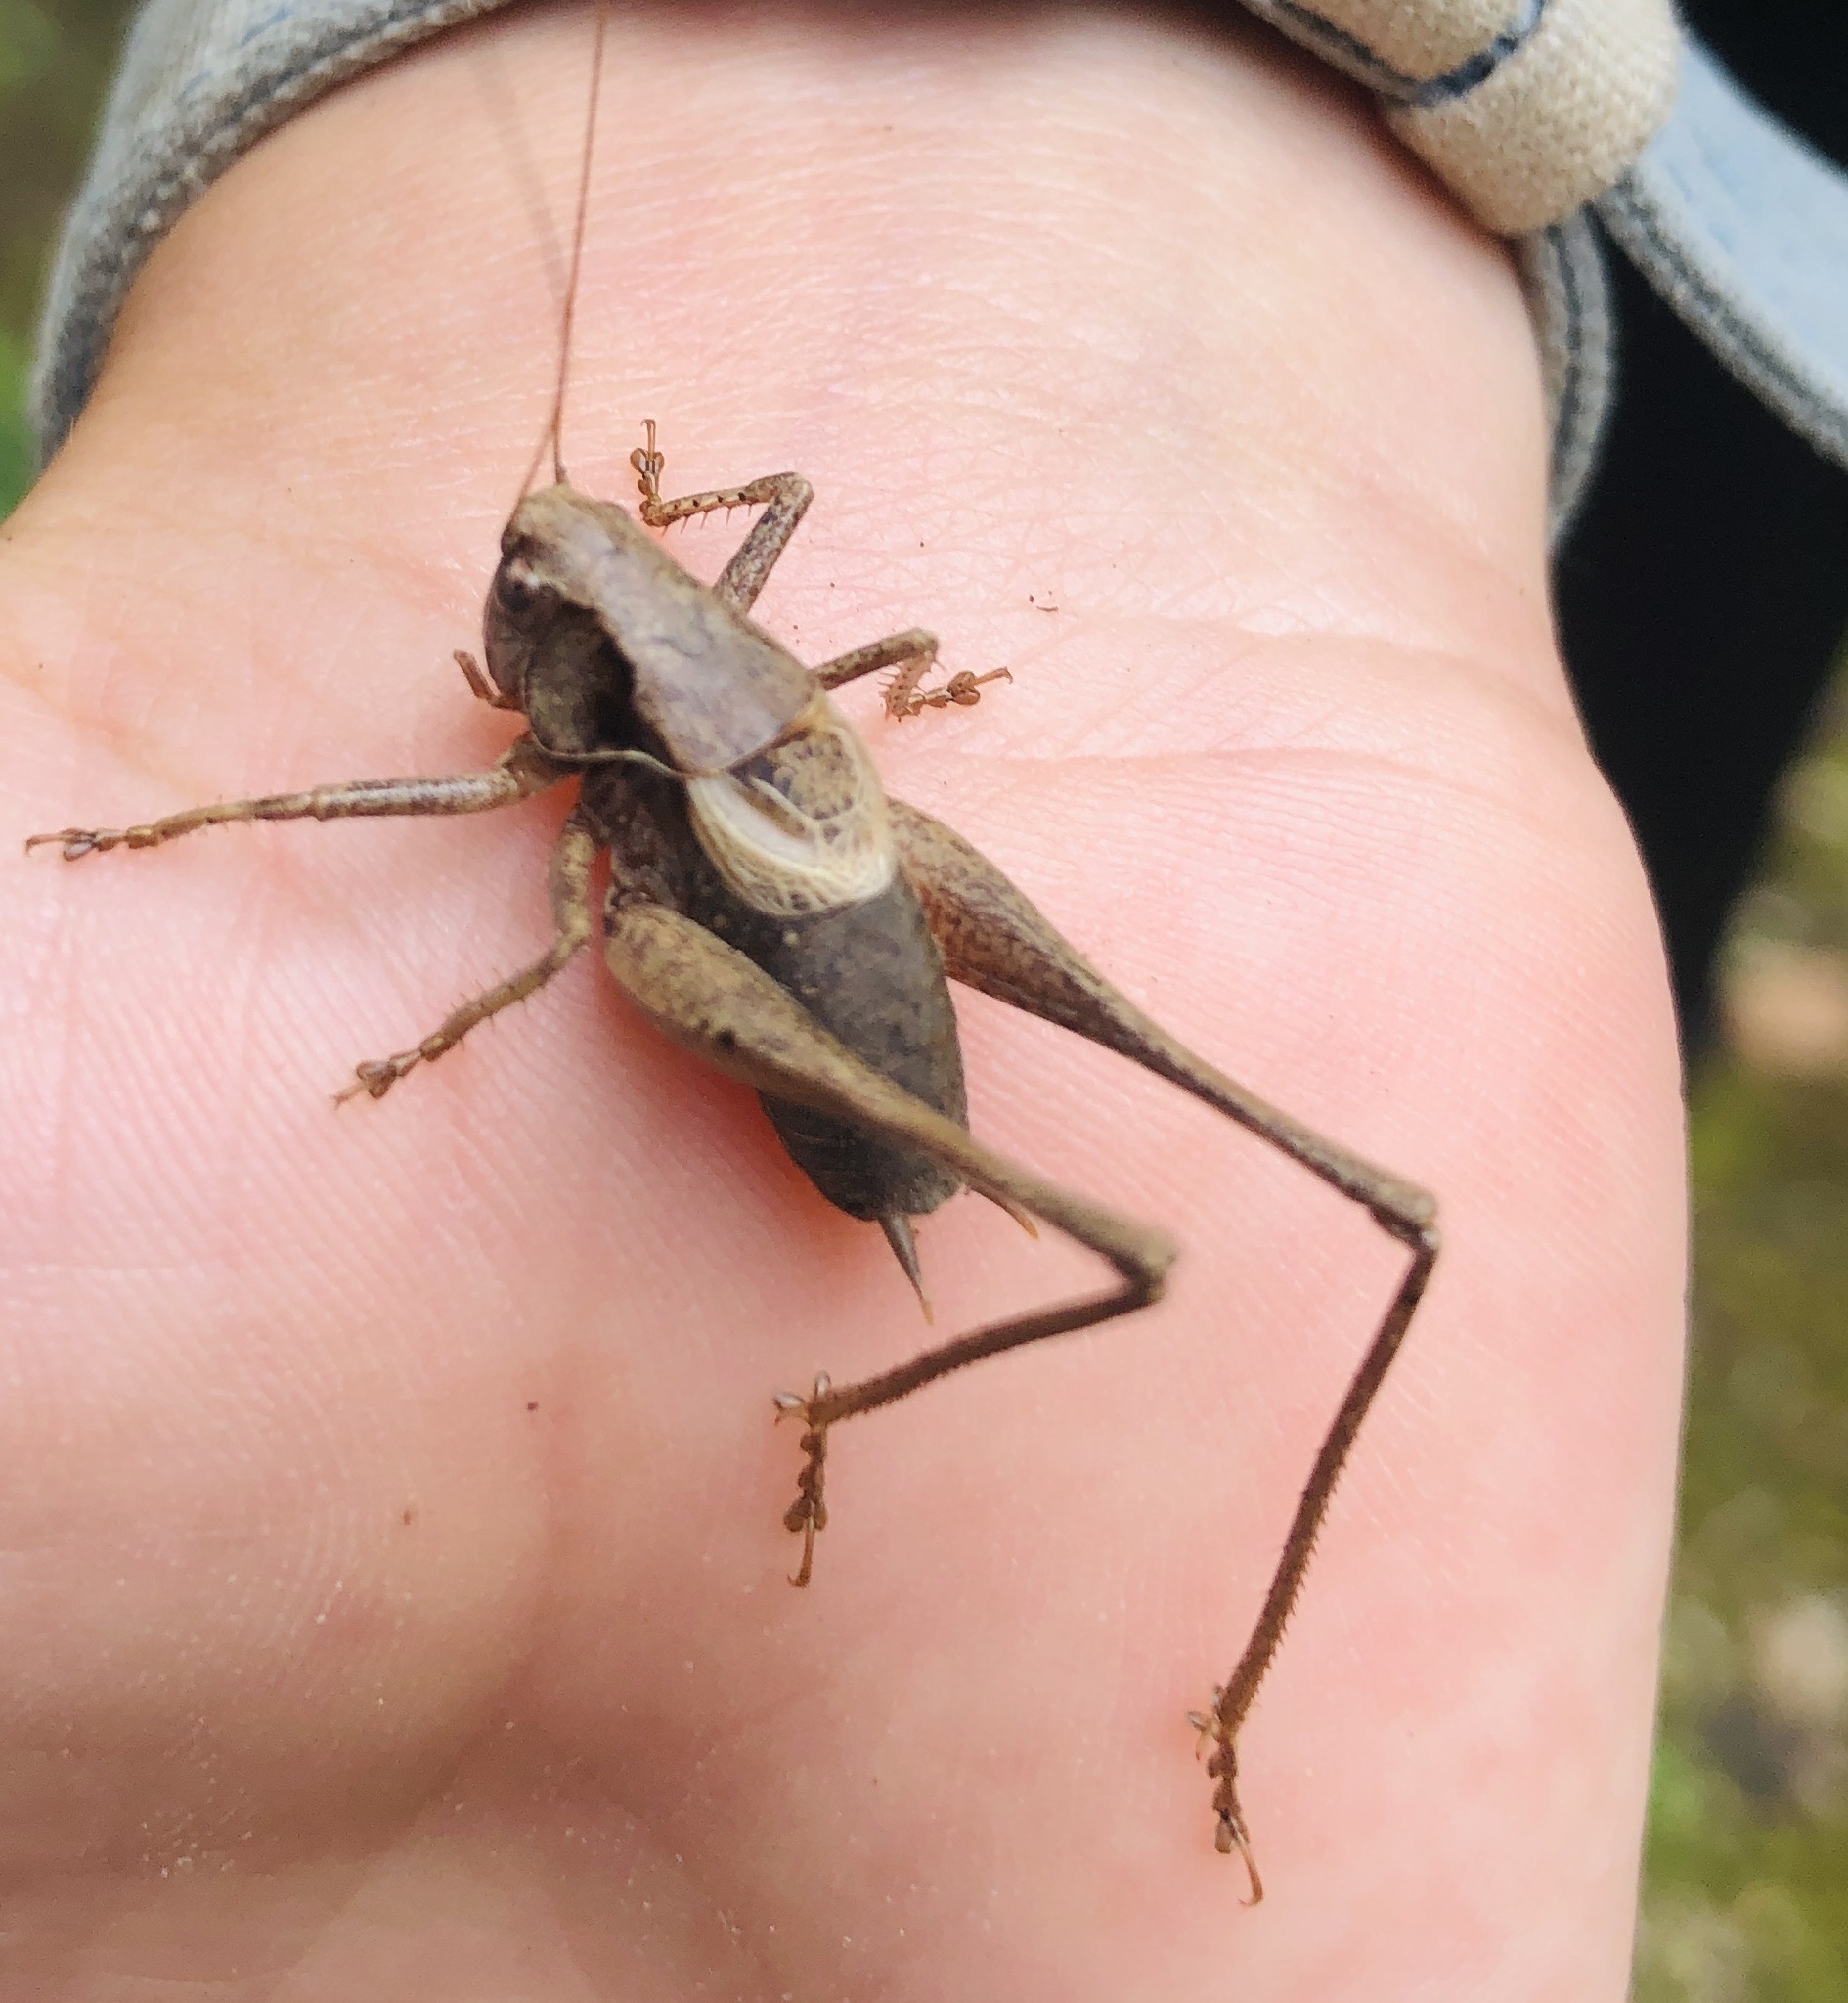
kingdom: Animalia
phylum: Arthropoda
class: Insecta
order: Orthoptera
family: Tettigoniidae
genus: Pholidoptera
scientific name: Pholidoptera griseoaptera
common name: Dark bush-cricket
